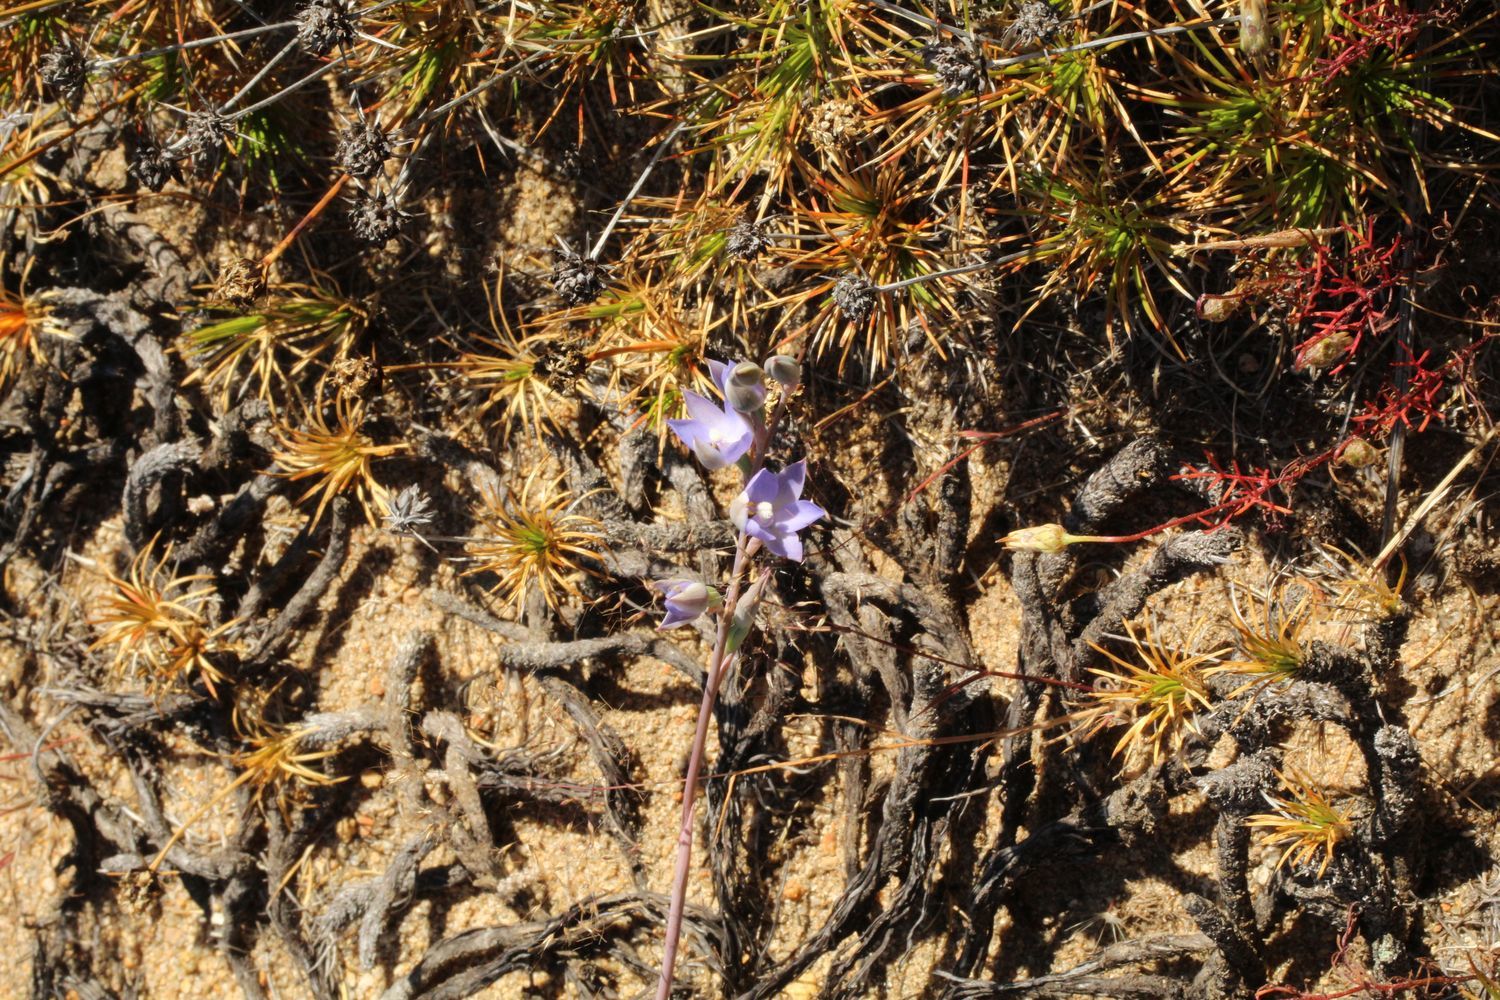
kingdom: Plantae
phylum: Tracheophyta
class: Liliopsida
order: Asparagales
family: Orchidaceae
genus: Thelymitra
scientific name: Thelymitra petrophila
